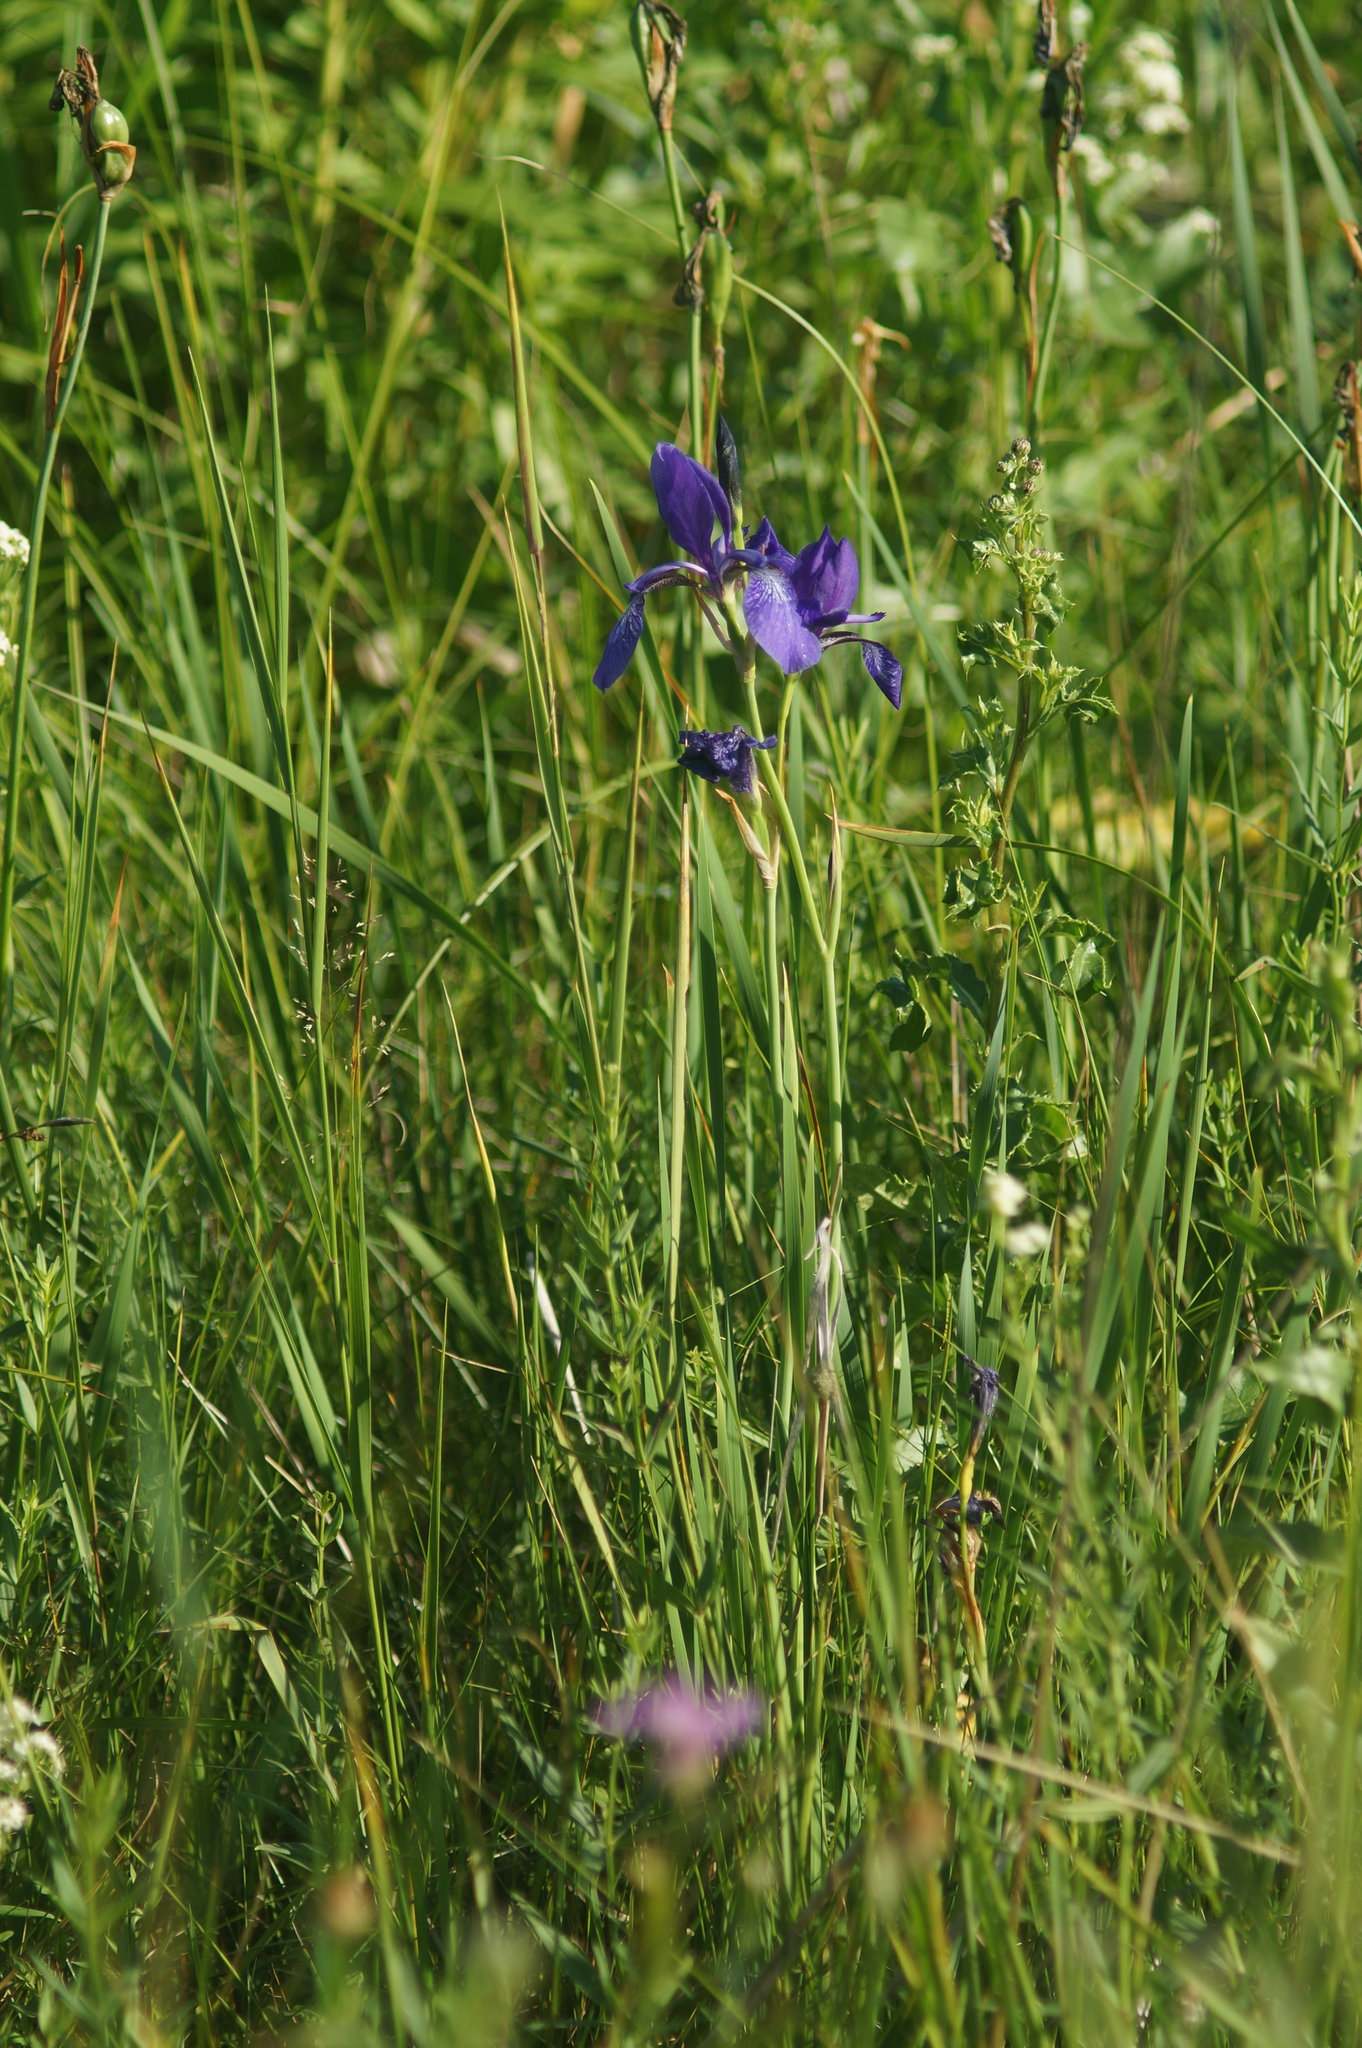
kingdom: Plantae
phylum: Tracheophyta
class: Liliopsida
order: Asparagales
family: Iridaceae
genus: Iris
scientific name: Iris sibirica
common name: Siberian iris
